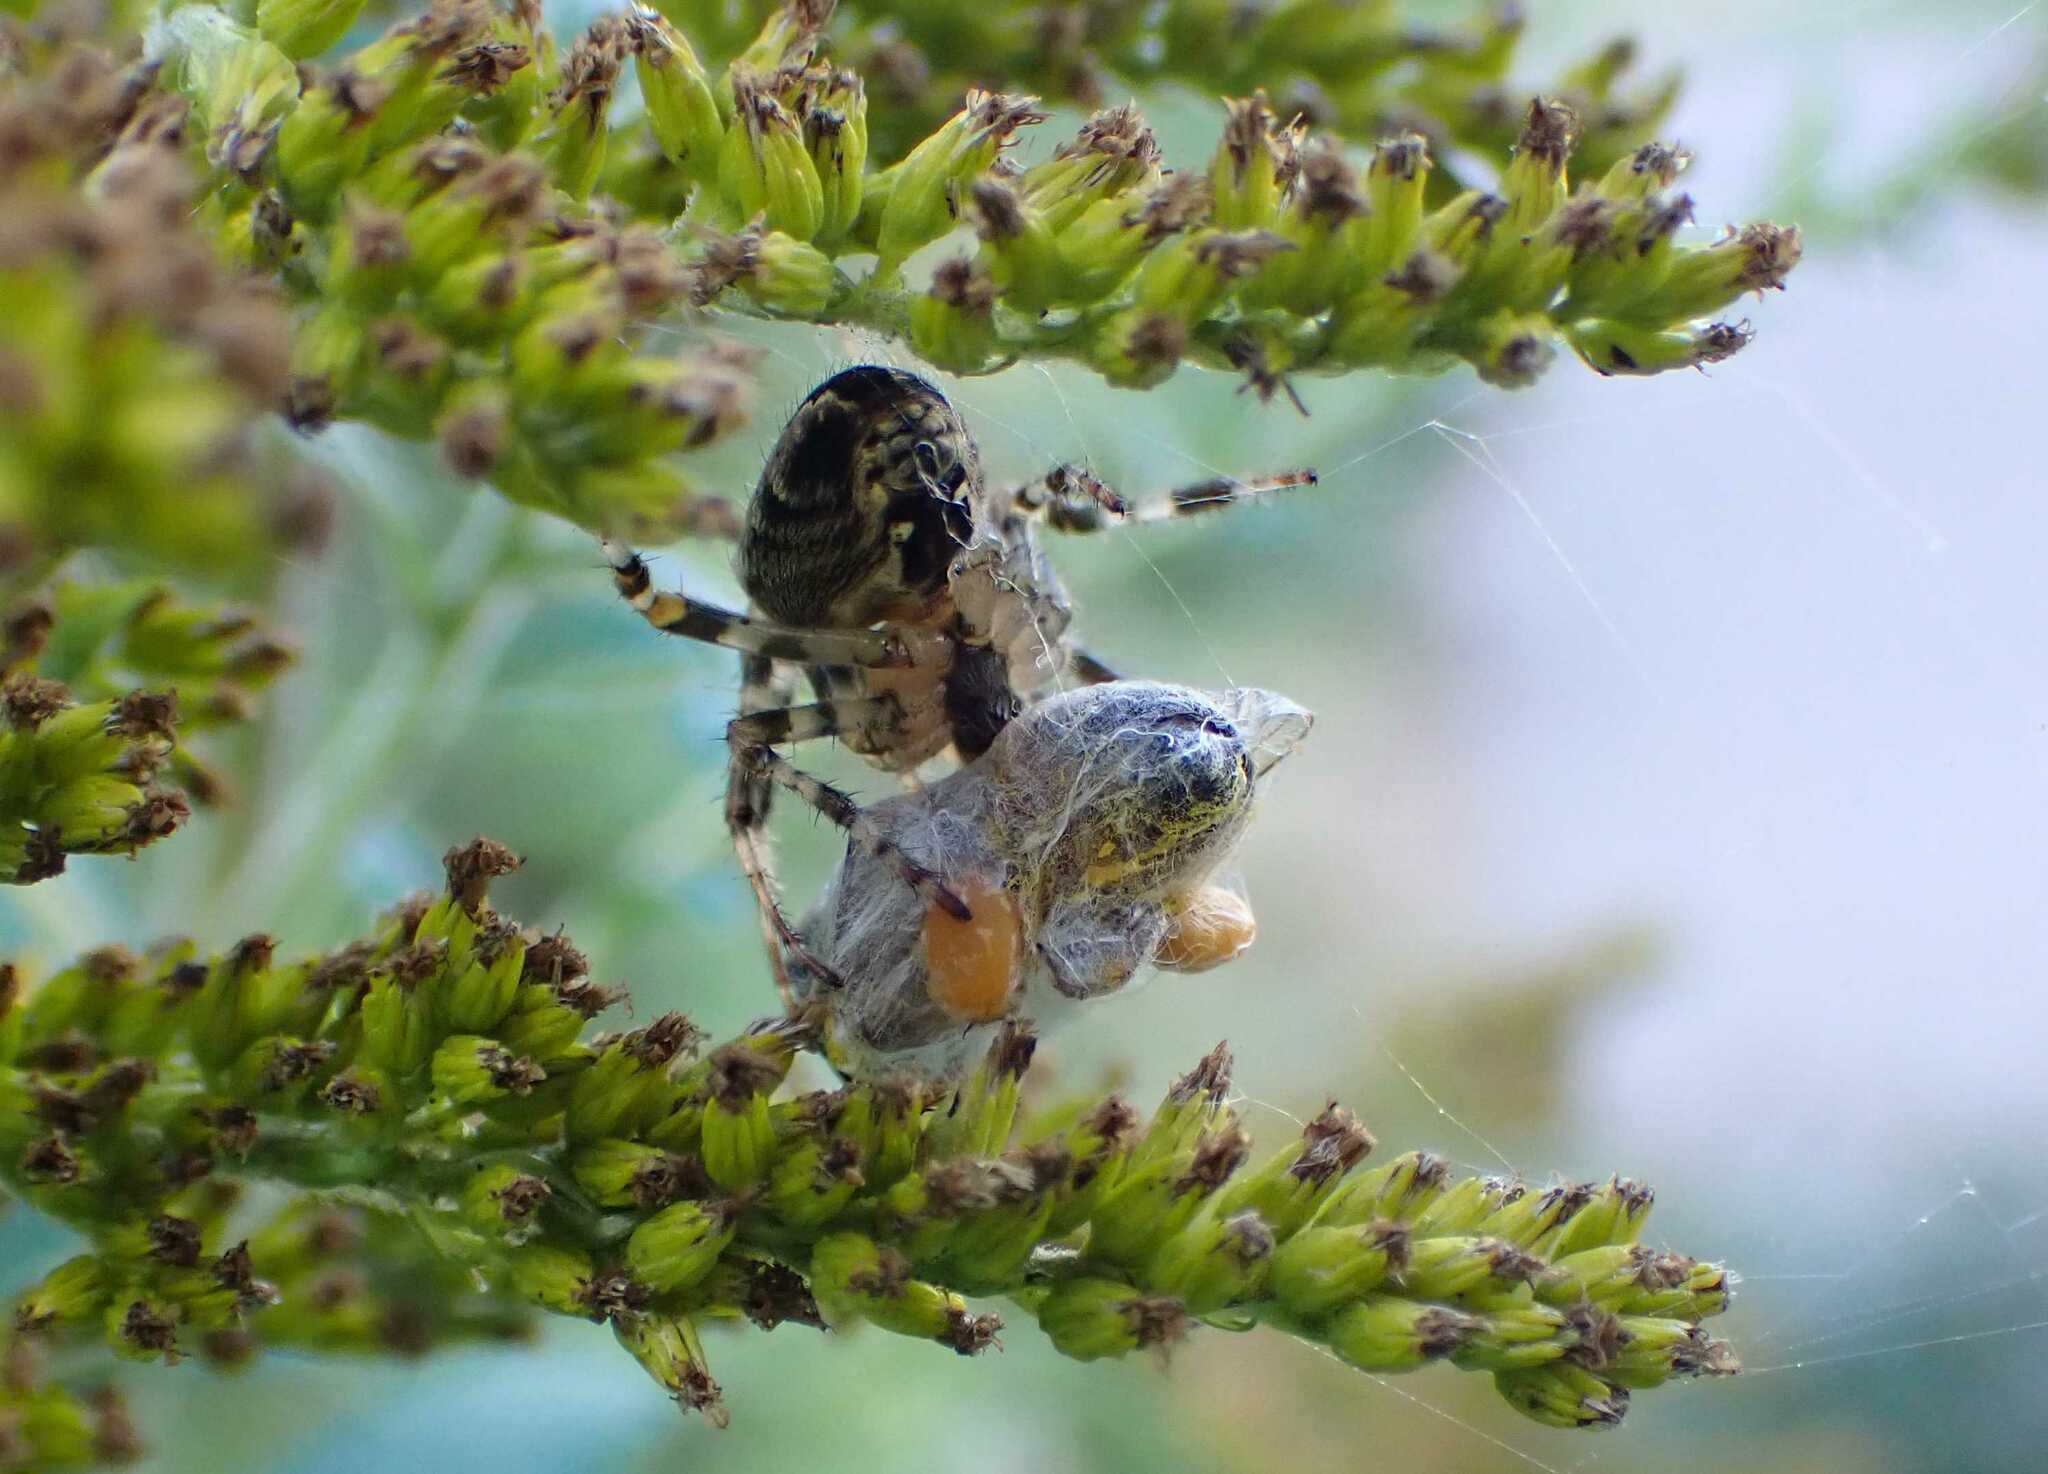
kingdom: Animalia
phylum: Arthropoda
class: Arachnida
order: Araneae
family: Araneidae
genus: Araneus
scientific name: Araneus diadematus
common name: Cross orbweaver
